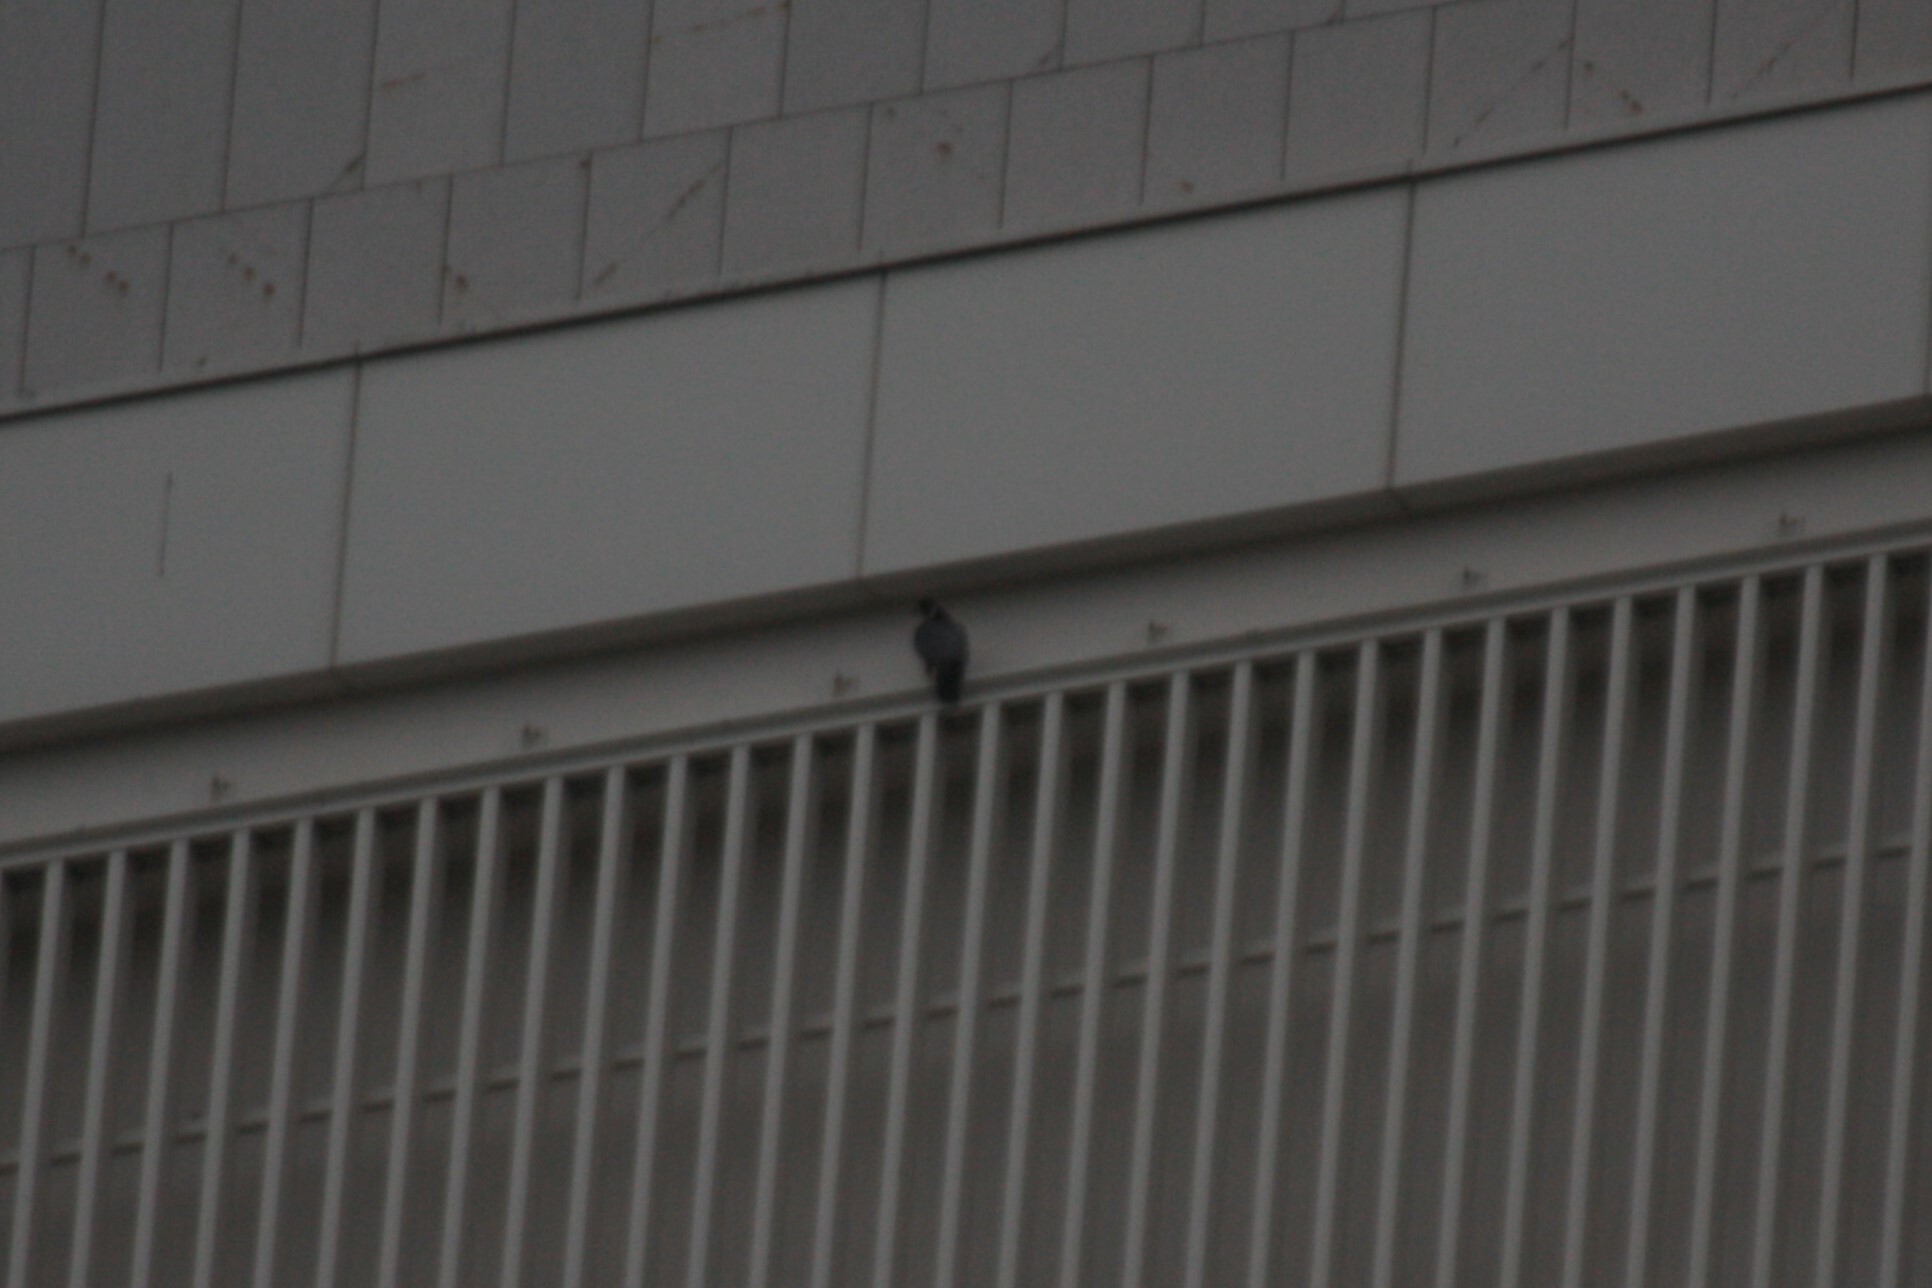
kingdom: Animalia
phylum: Chordata
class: Aves
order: Falconiformes
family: Falconidae
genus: Falco
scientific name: Falco peregrinus
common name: Peregrine falcon
